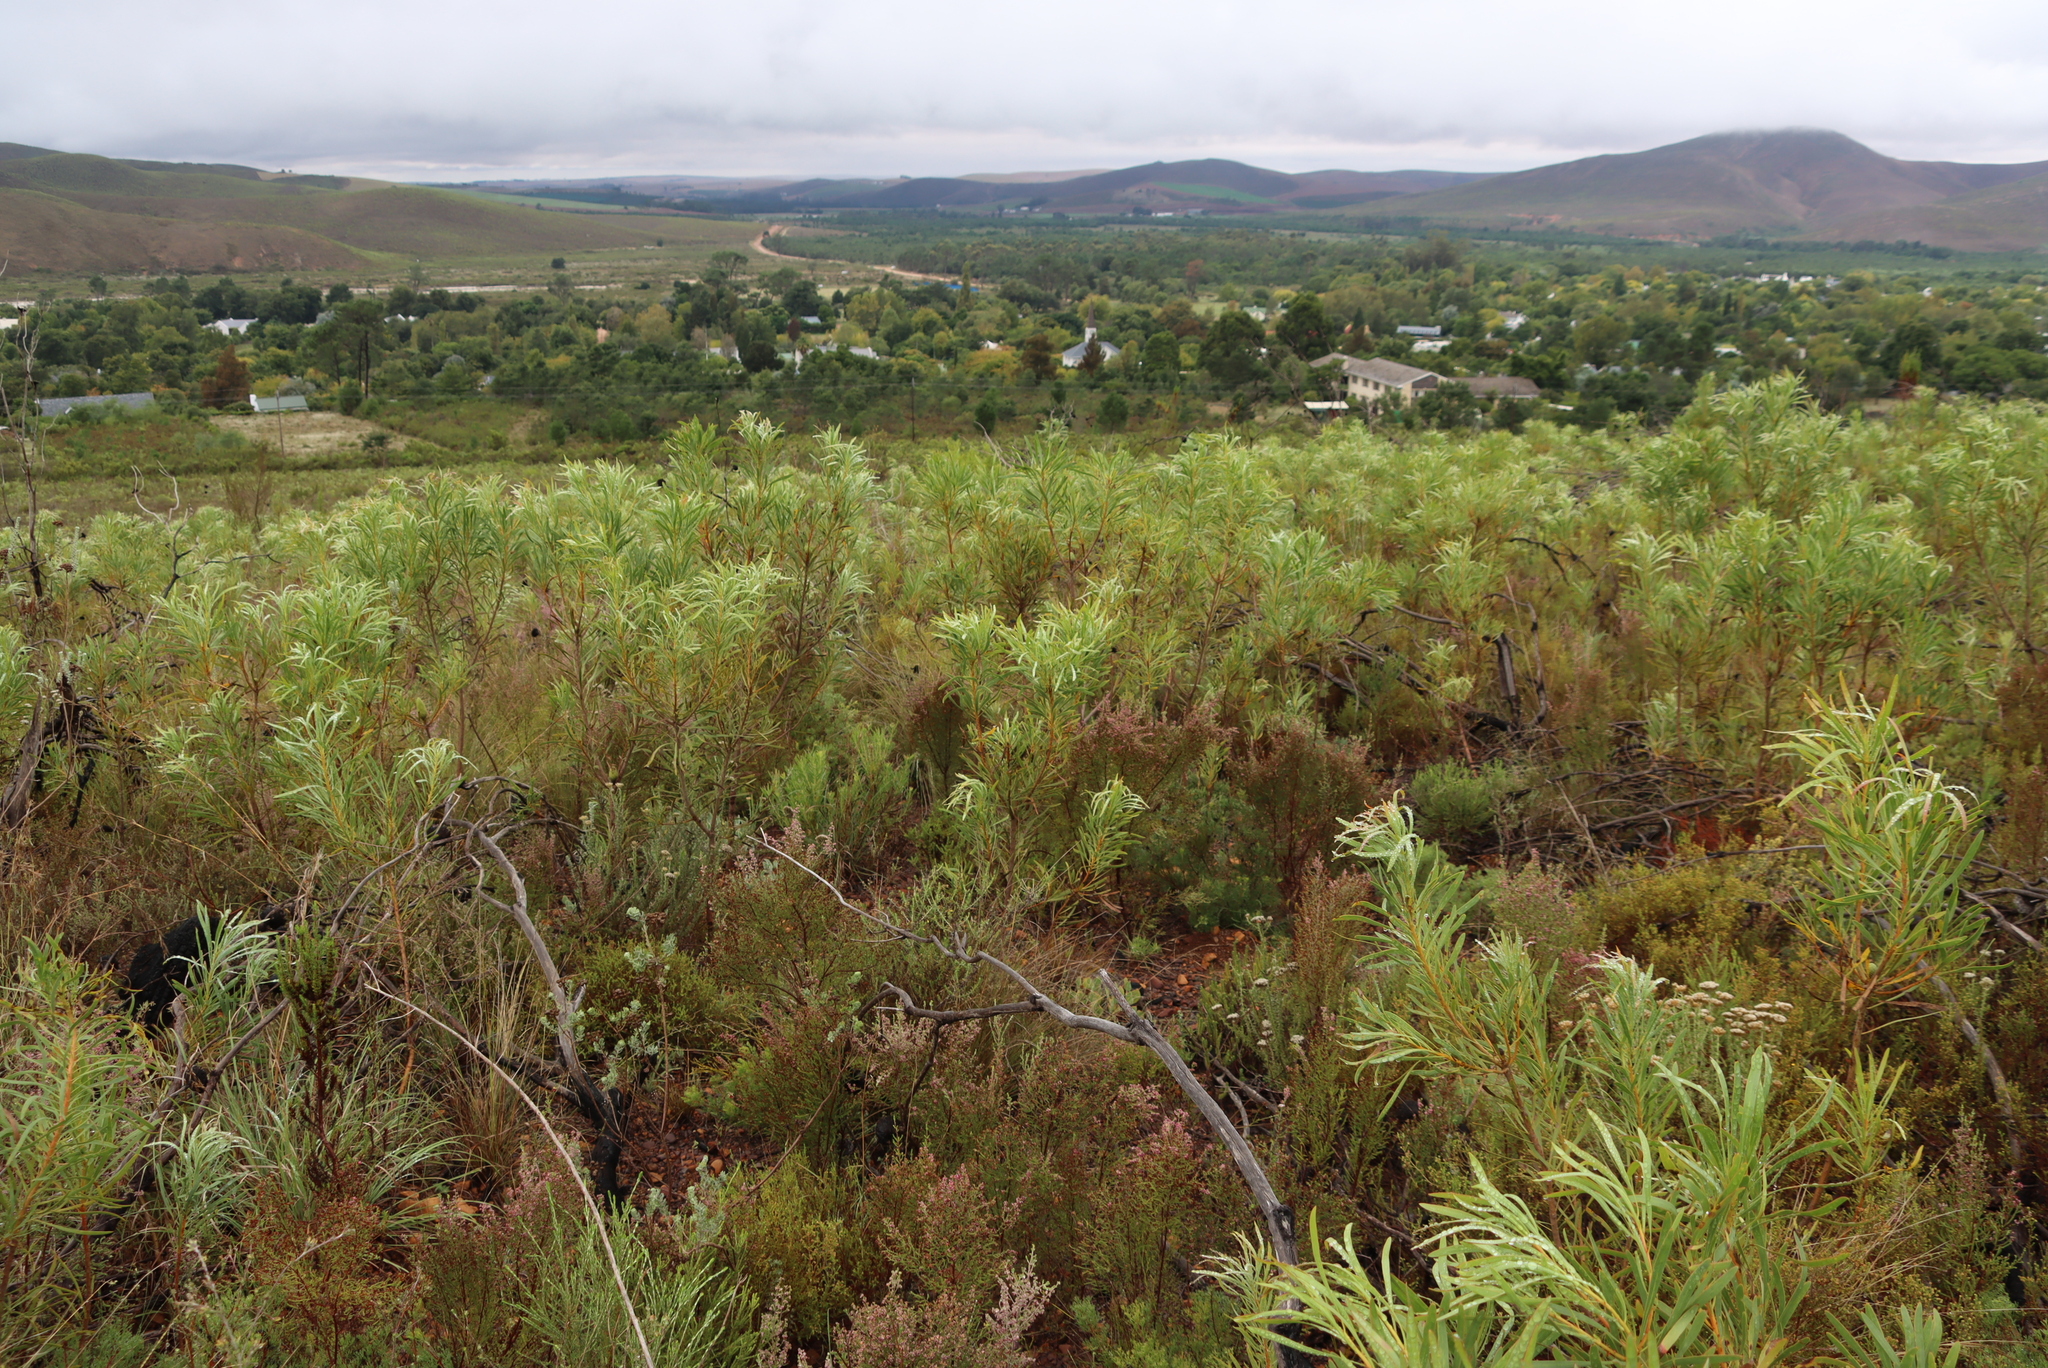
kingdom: Plantae
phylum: Tracheophyta
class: Magnoliopsida
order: Proteales
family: Proteaceae
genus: Protea
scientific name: Protea repens
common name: Sugarbush
